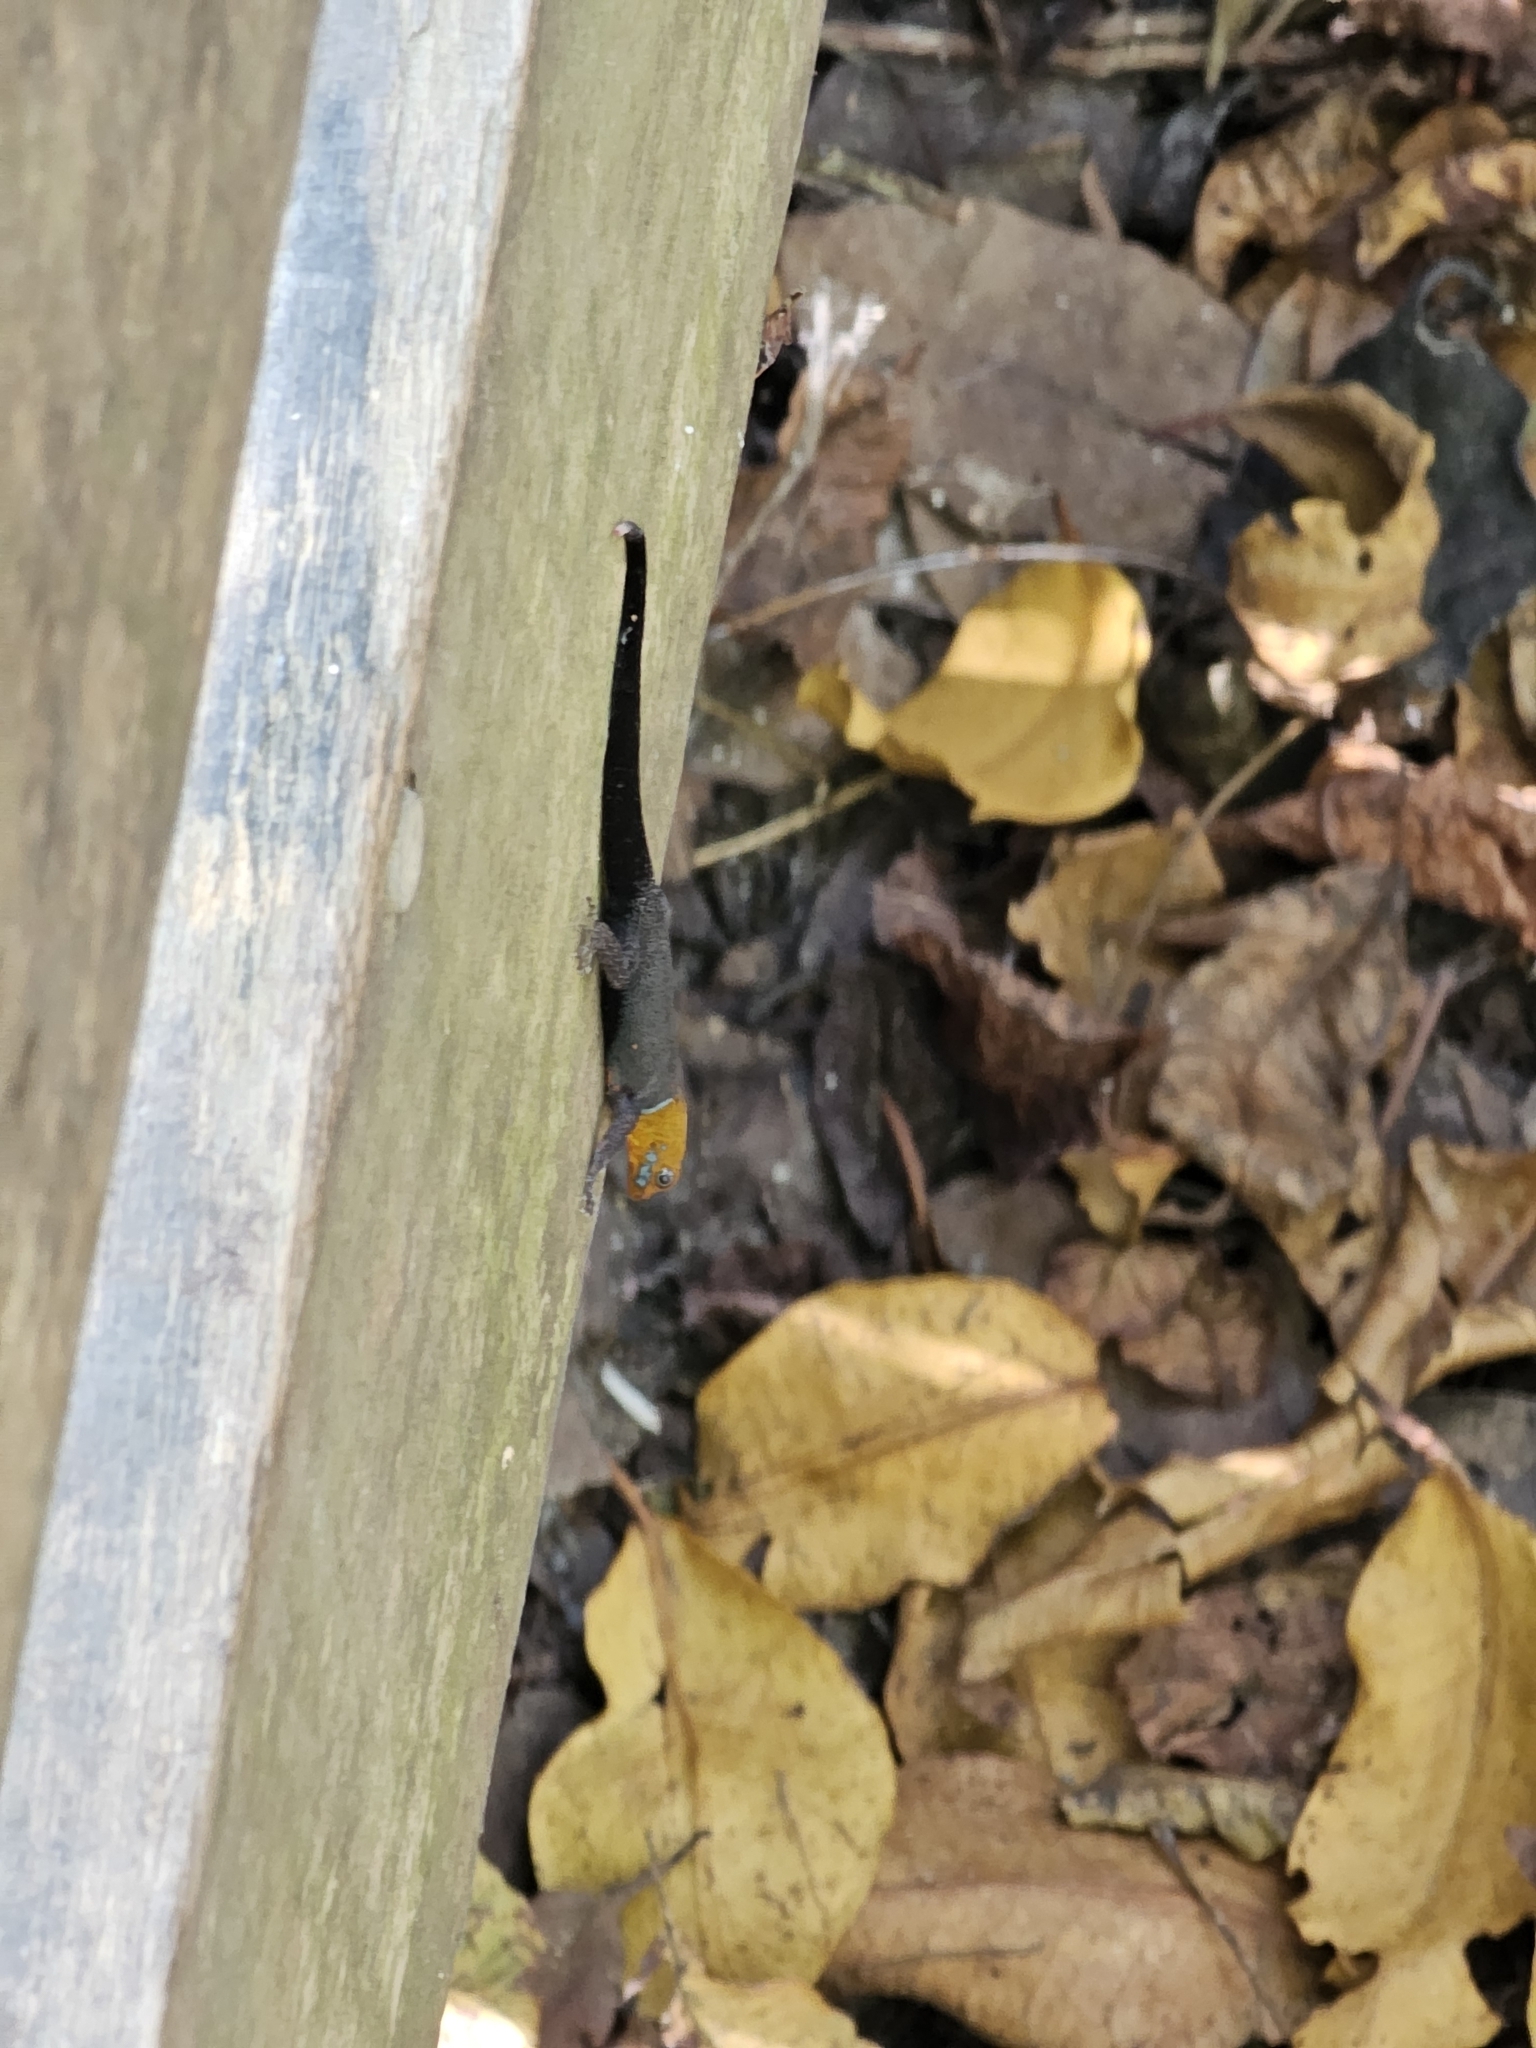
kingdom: Animalia
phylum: Chordata
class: Squamata
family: Sphaerodactylidae
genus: Gonatodes
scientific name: Gonatodes albogularis
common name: Yellow-headed gecko
